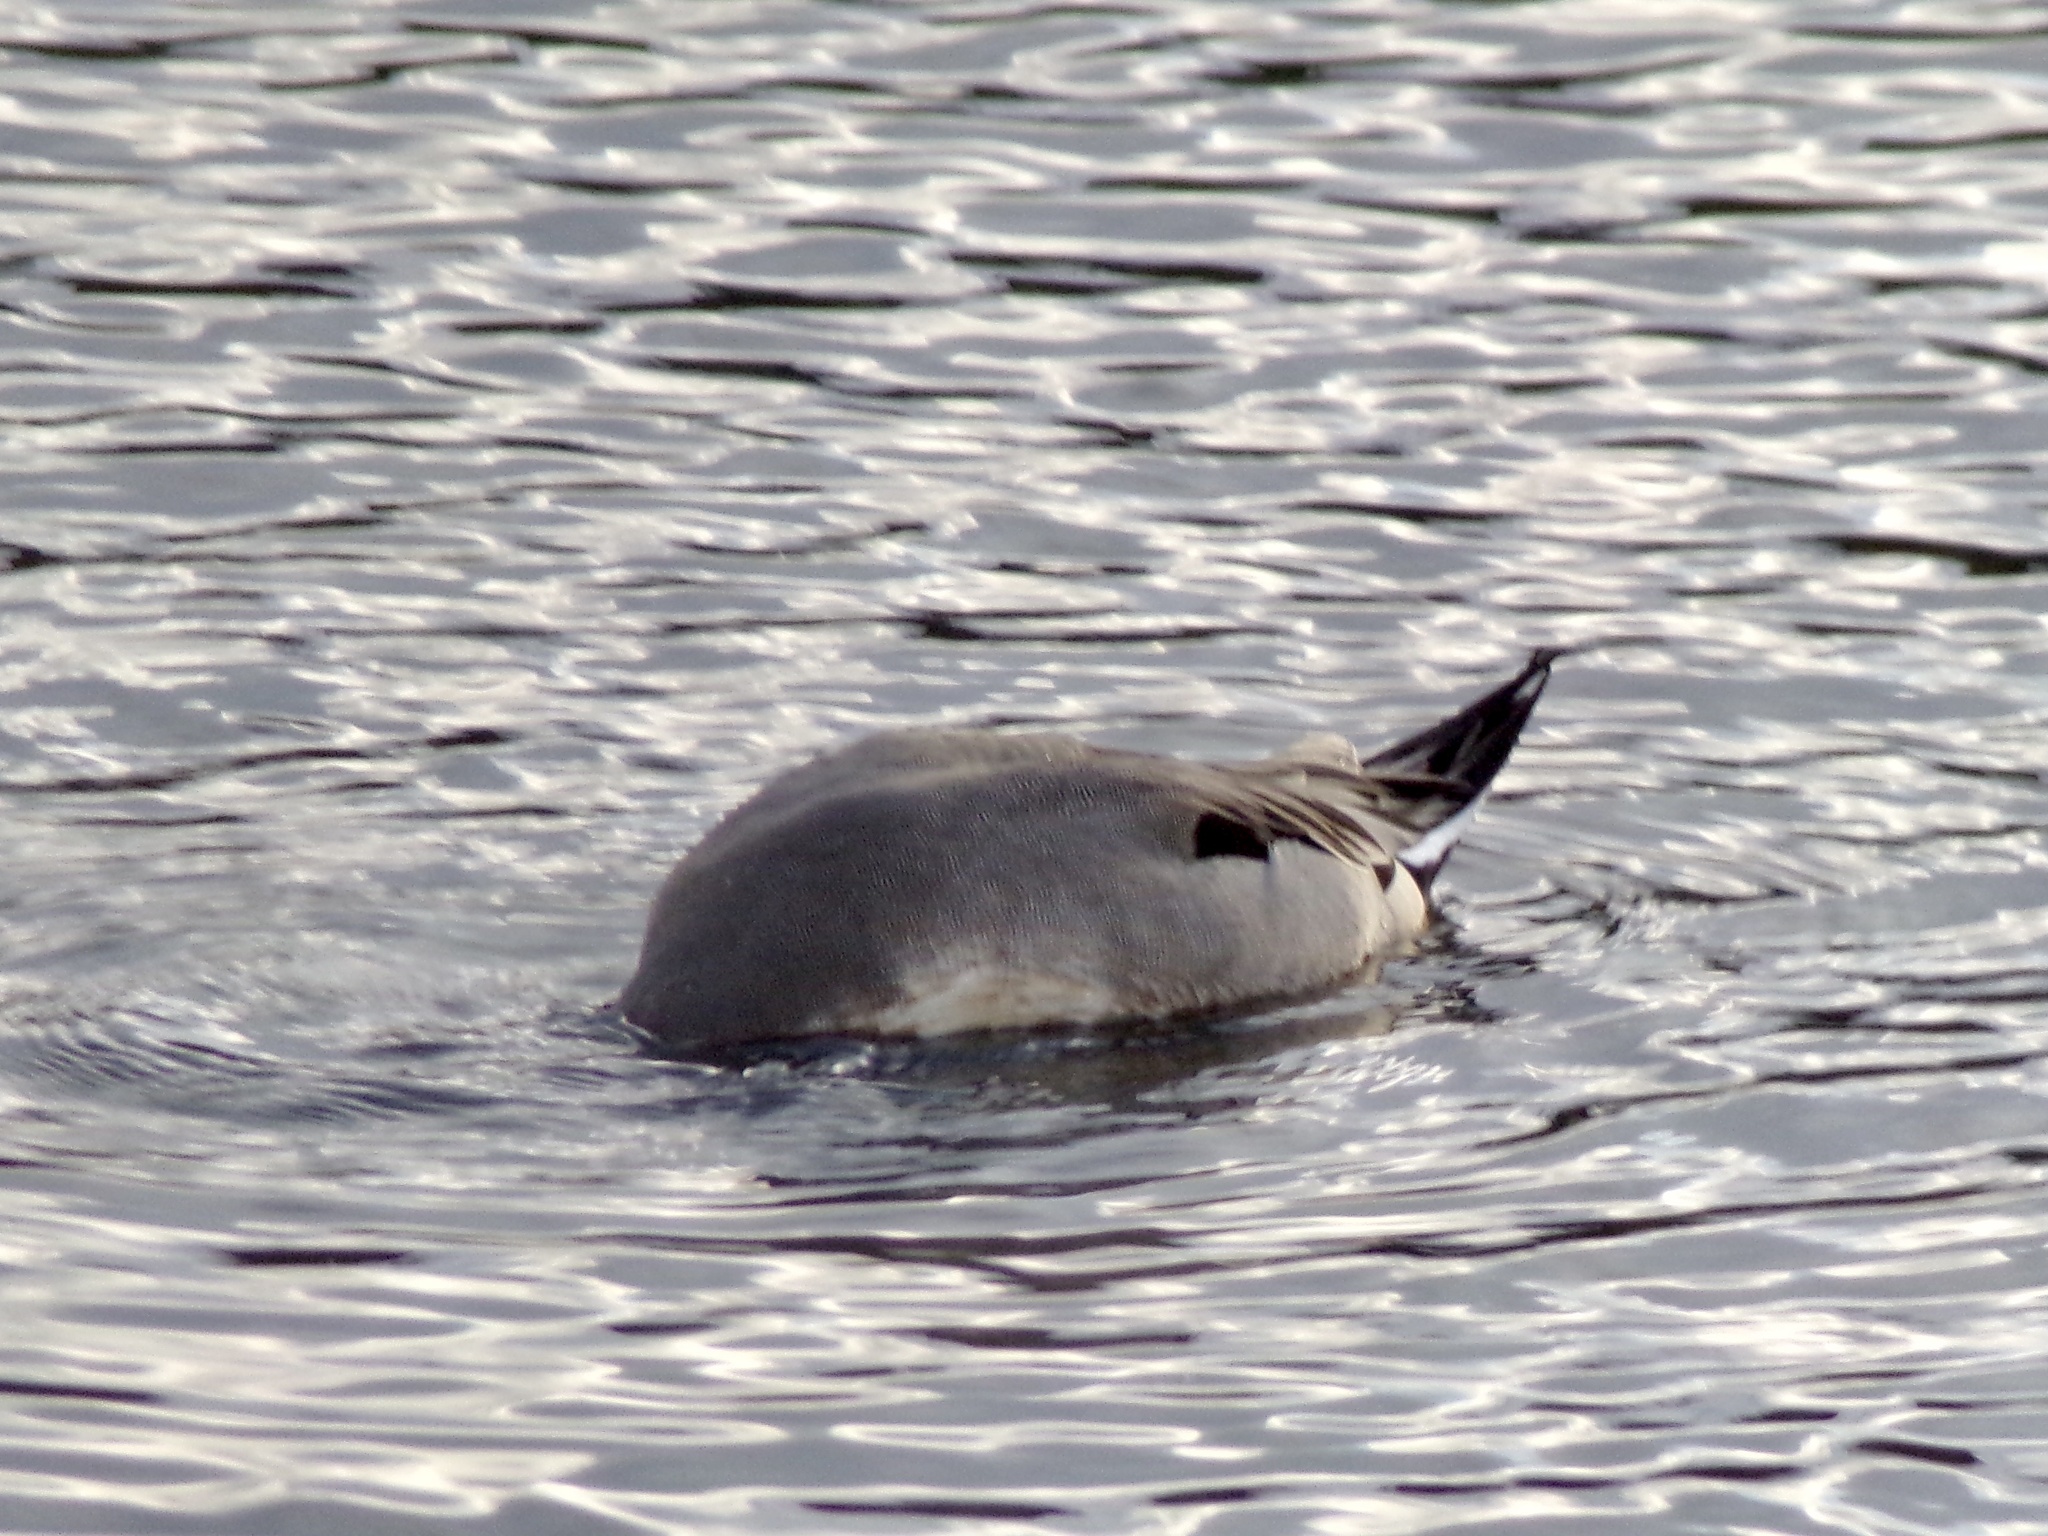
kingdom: Animalia
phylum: Chordata
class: Aves
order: Anseriformes
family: Anatidae
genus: Anas
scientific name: Anas acuta
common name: Northern pintail
